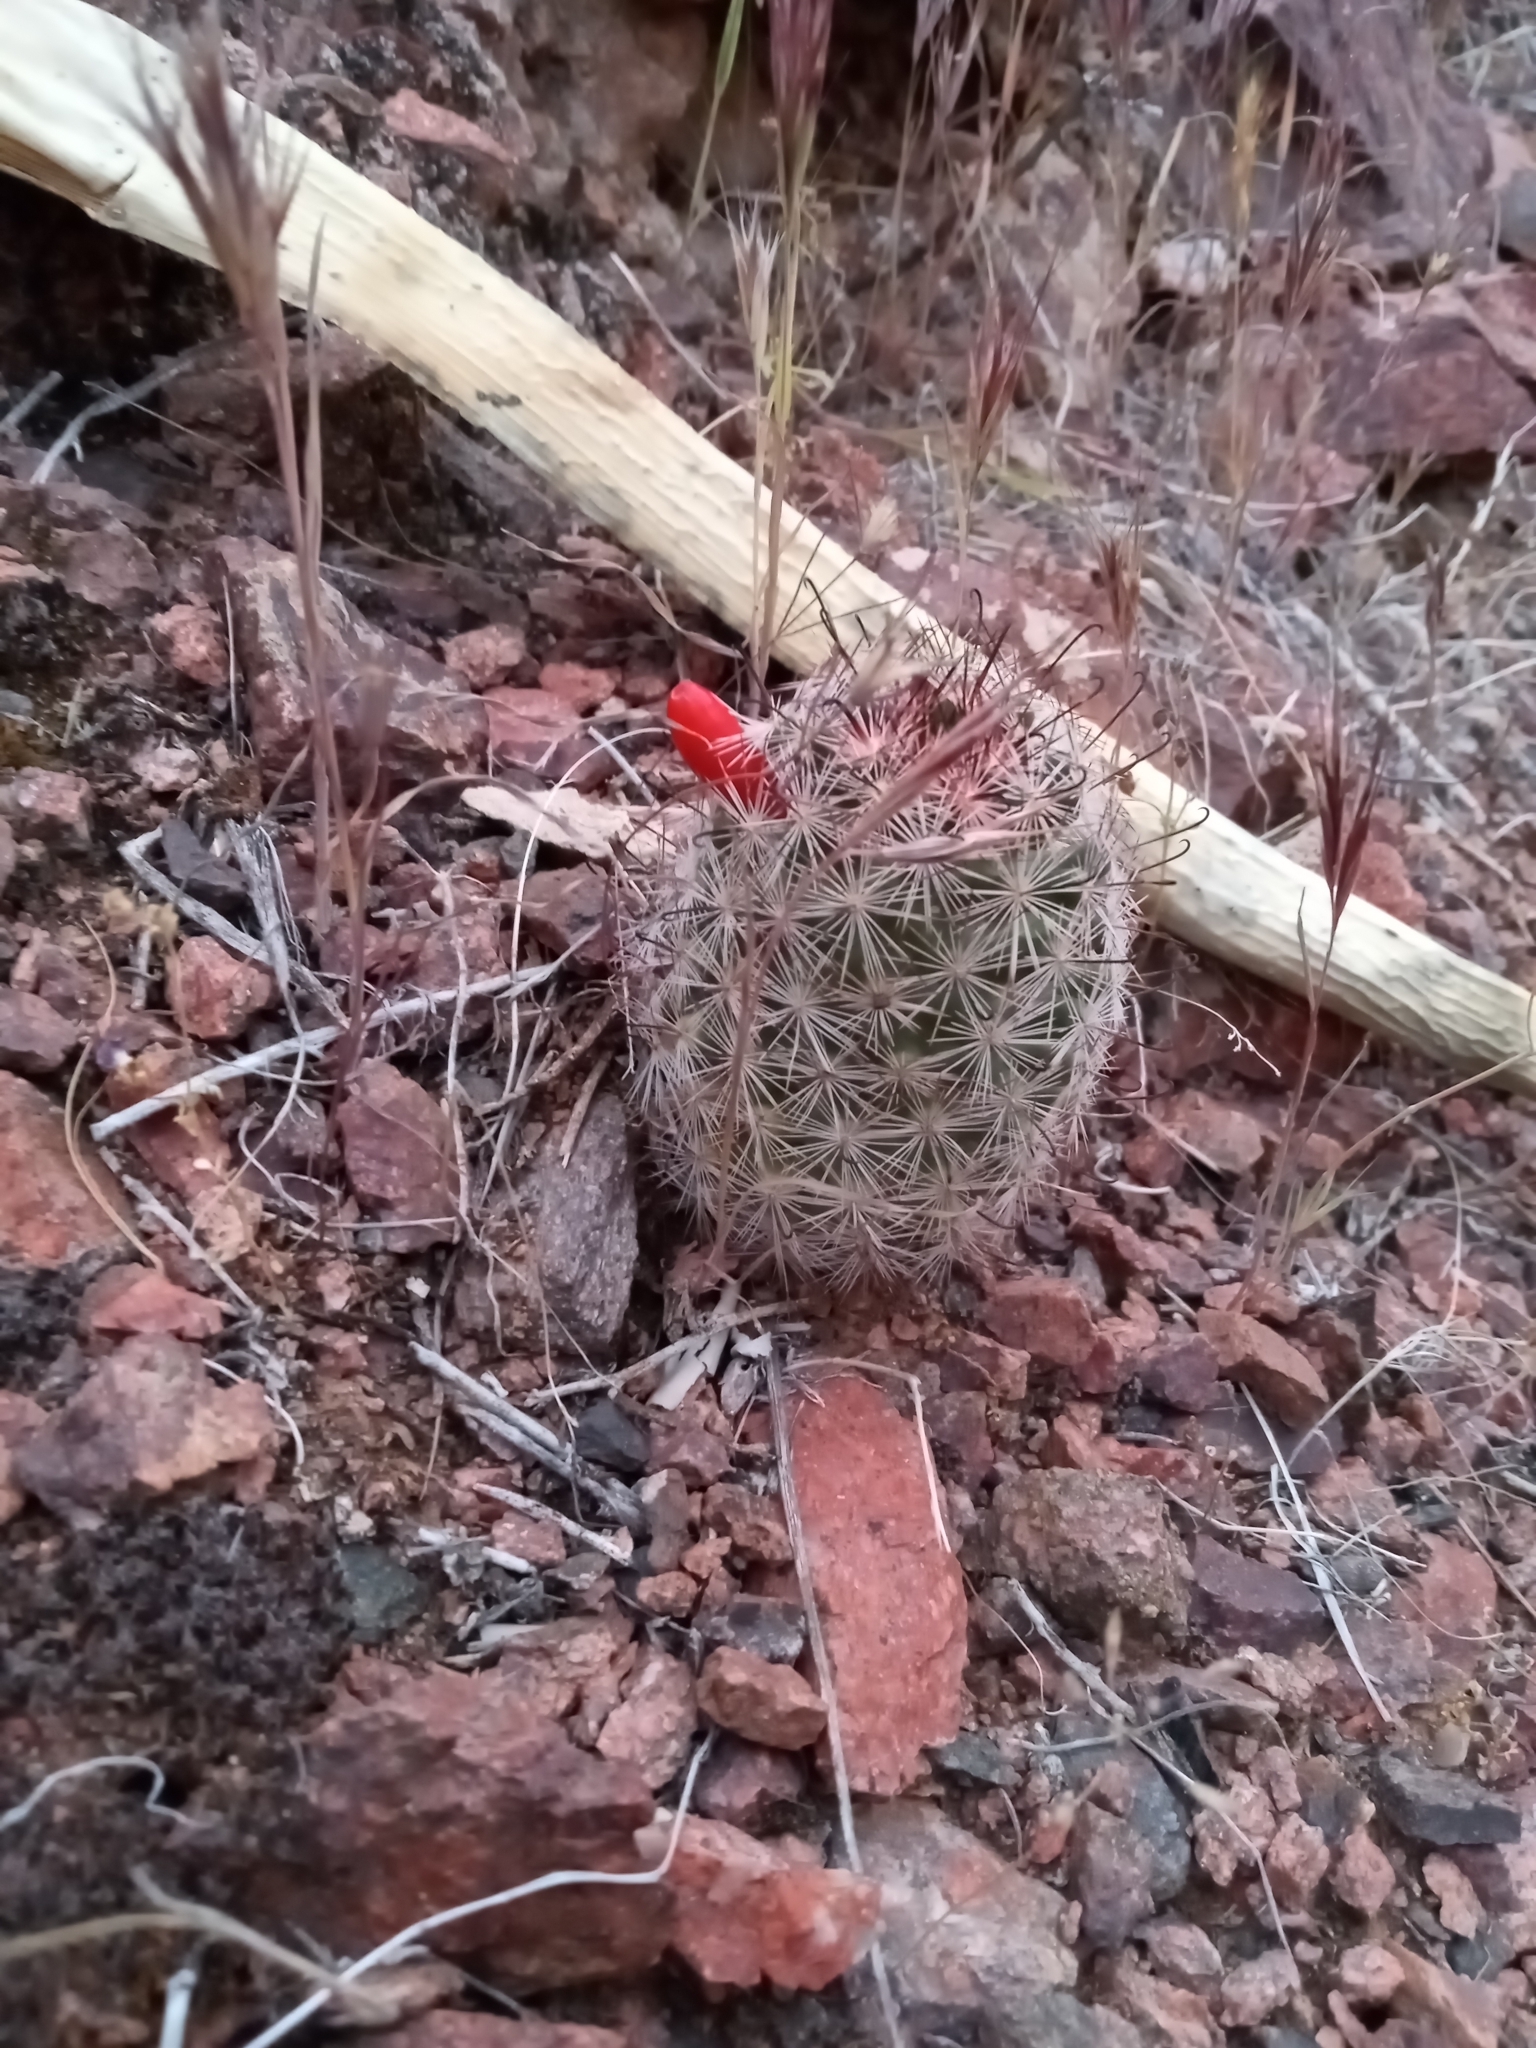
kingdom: Plantae
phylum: Tracheophyta
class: Magnoliopsida
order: Caryophyllales
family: Cactaceae
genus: Cochemiea
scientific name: Cochemiea tetrancistra
